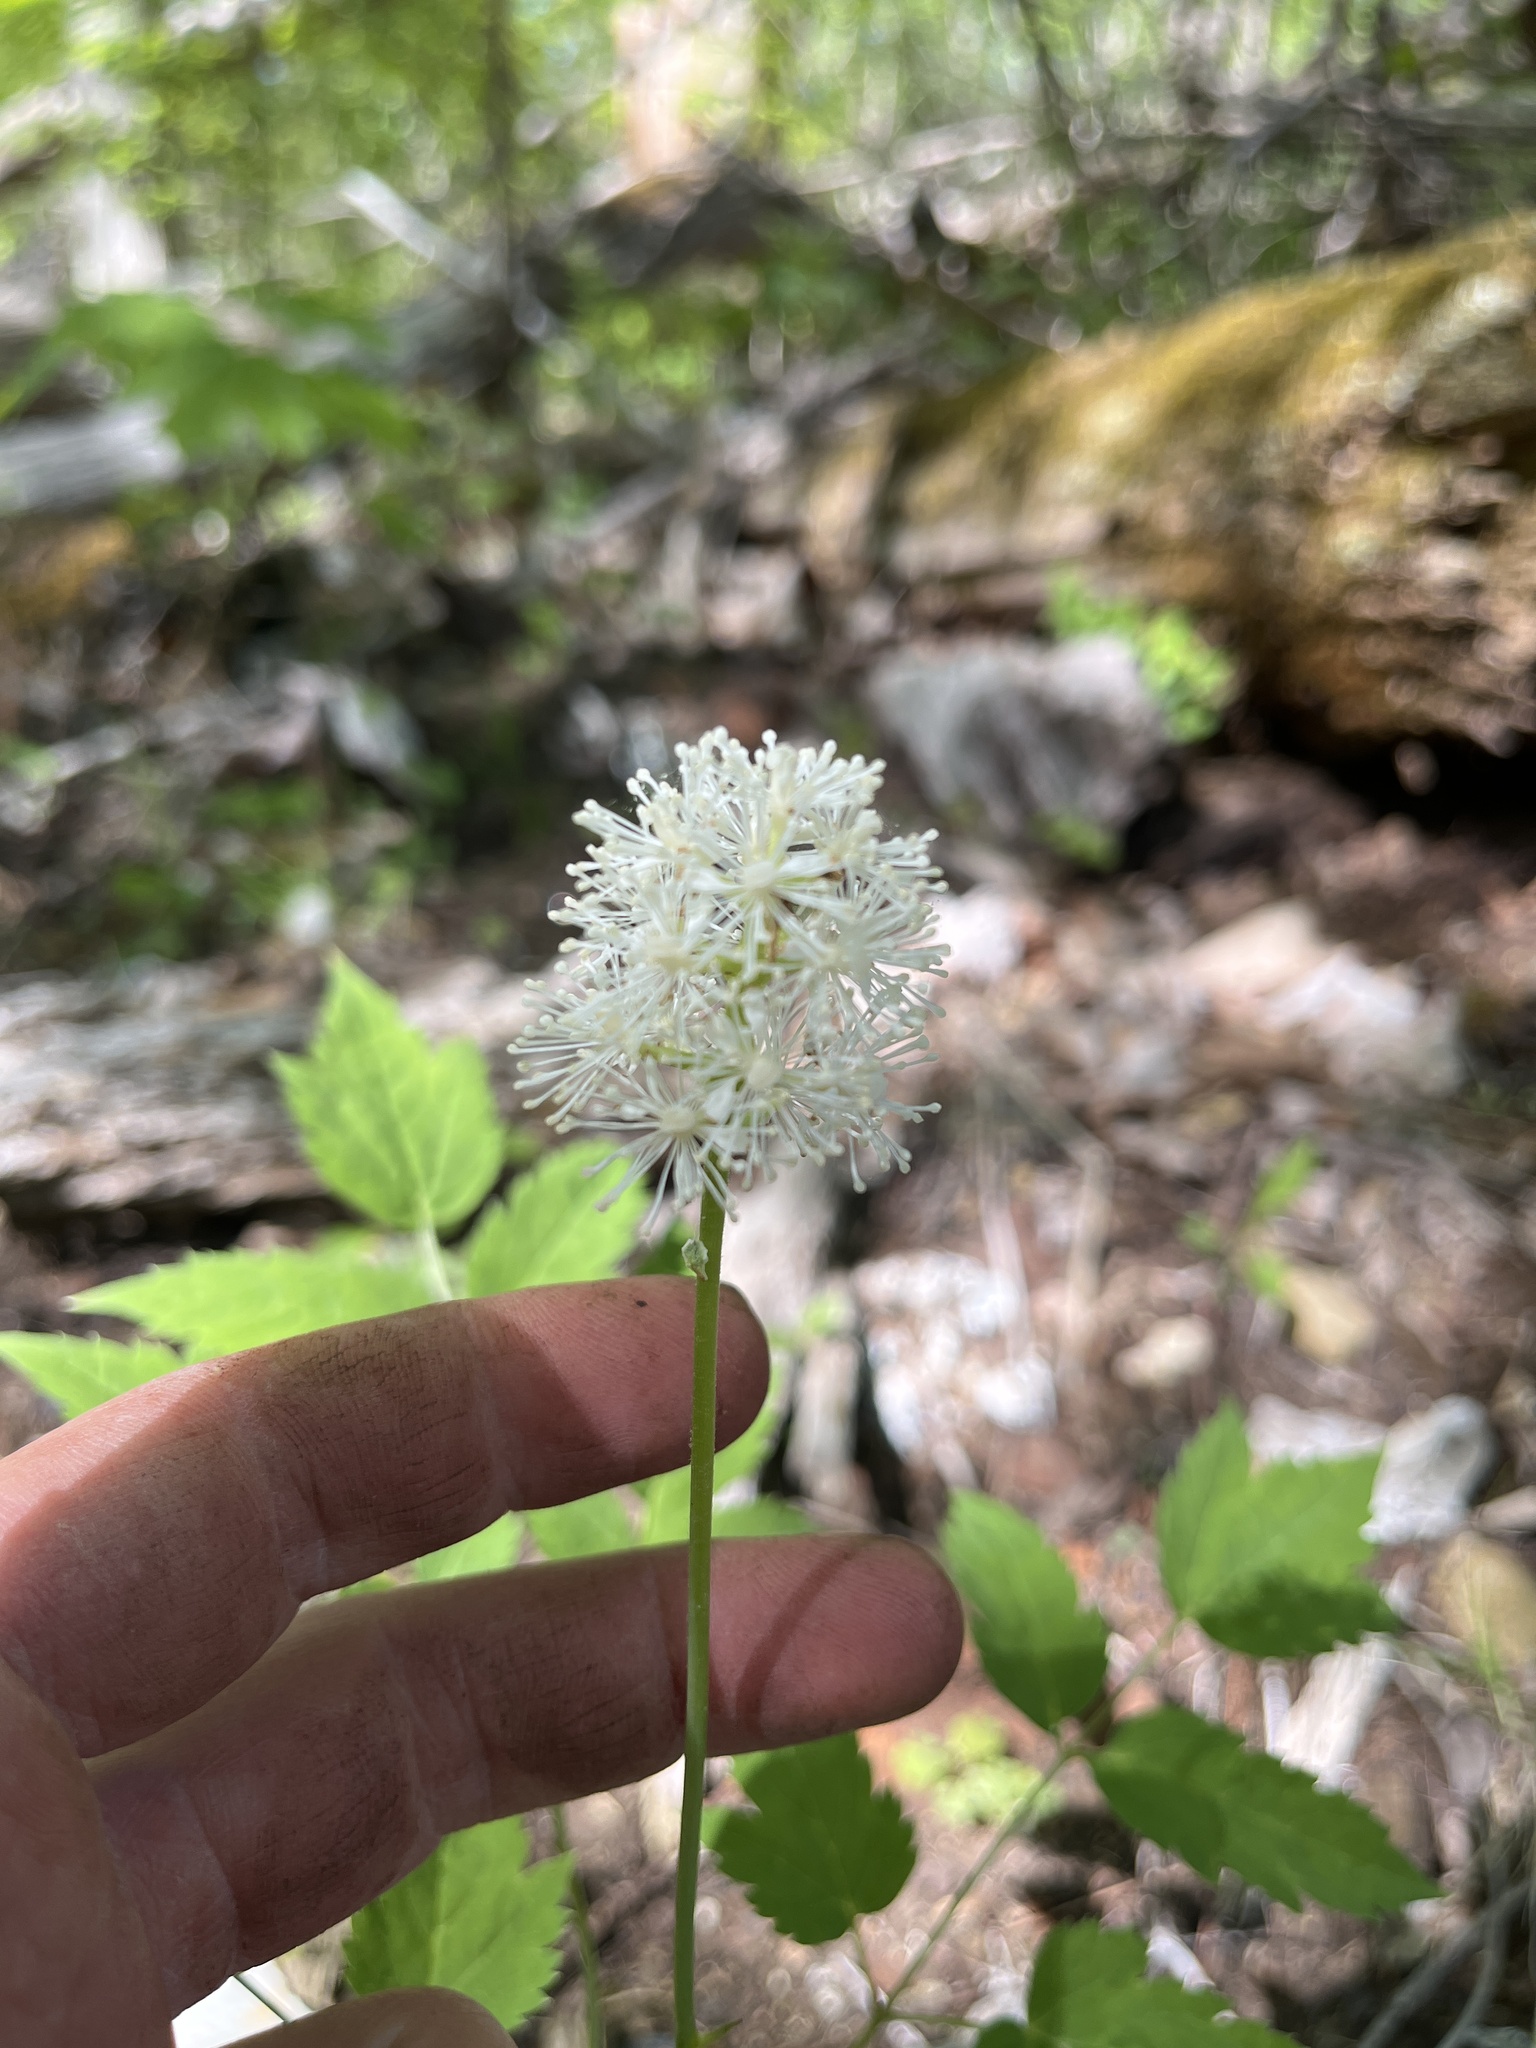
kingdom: Plantae
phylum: Tracheophyta
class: Magnoliopsida
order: Ranunculales
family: Ranunculaceae
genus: Actaea
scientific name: Actaea pachypoda
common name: Doll's-eyes
